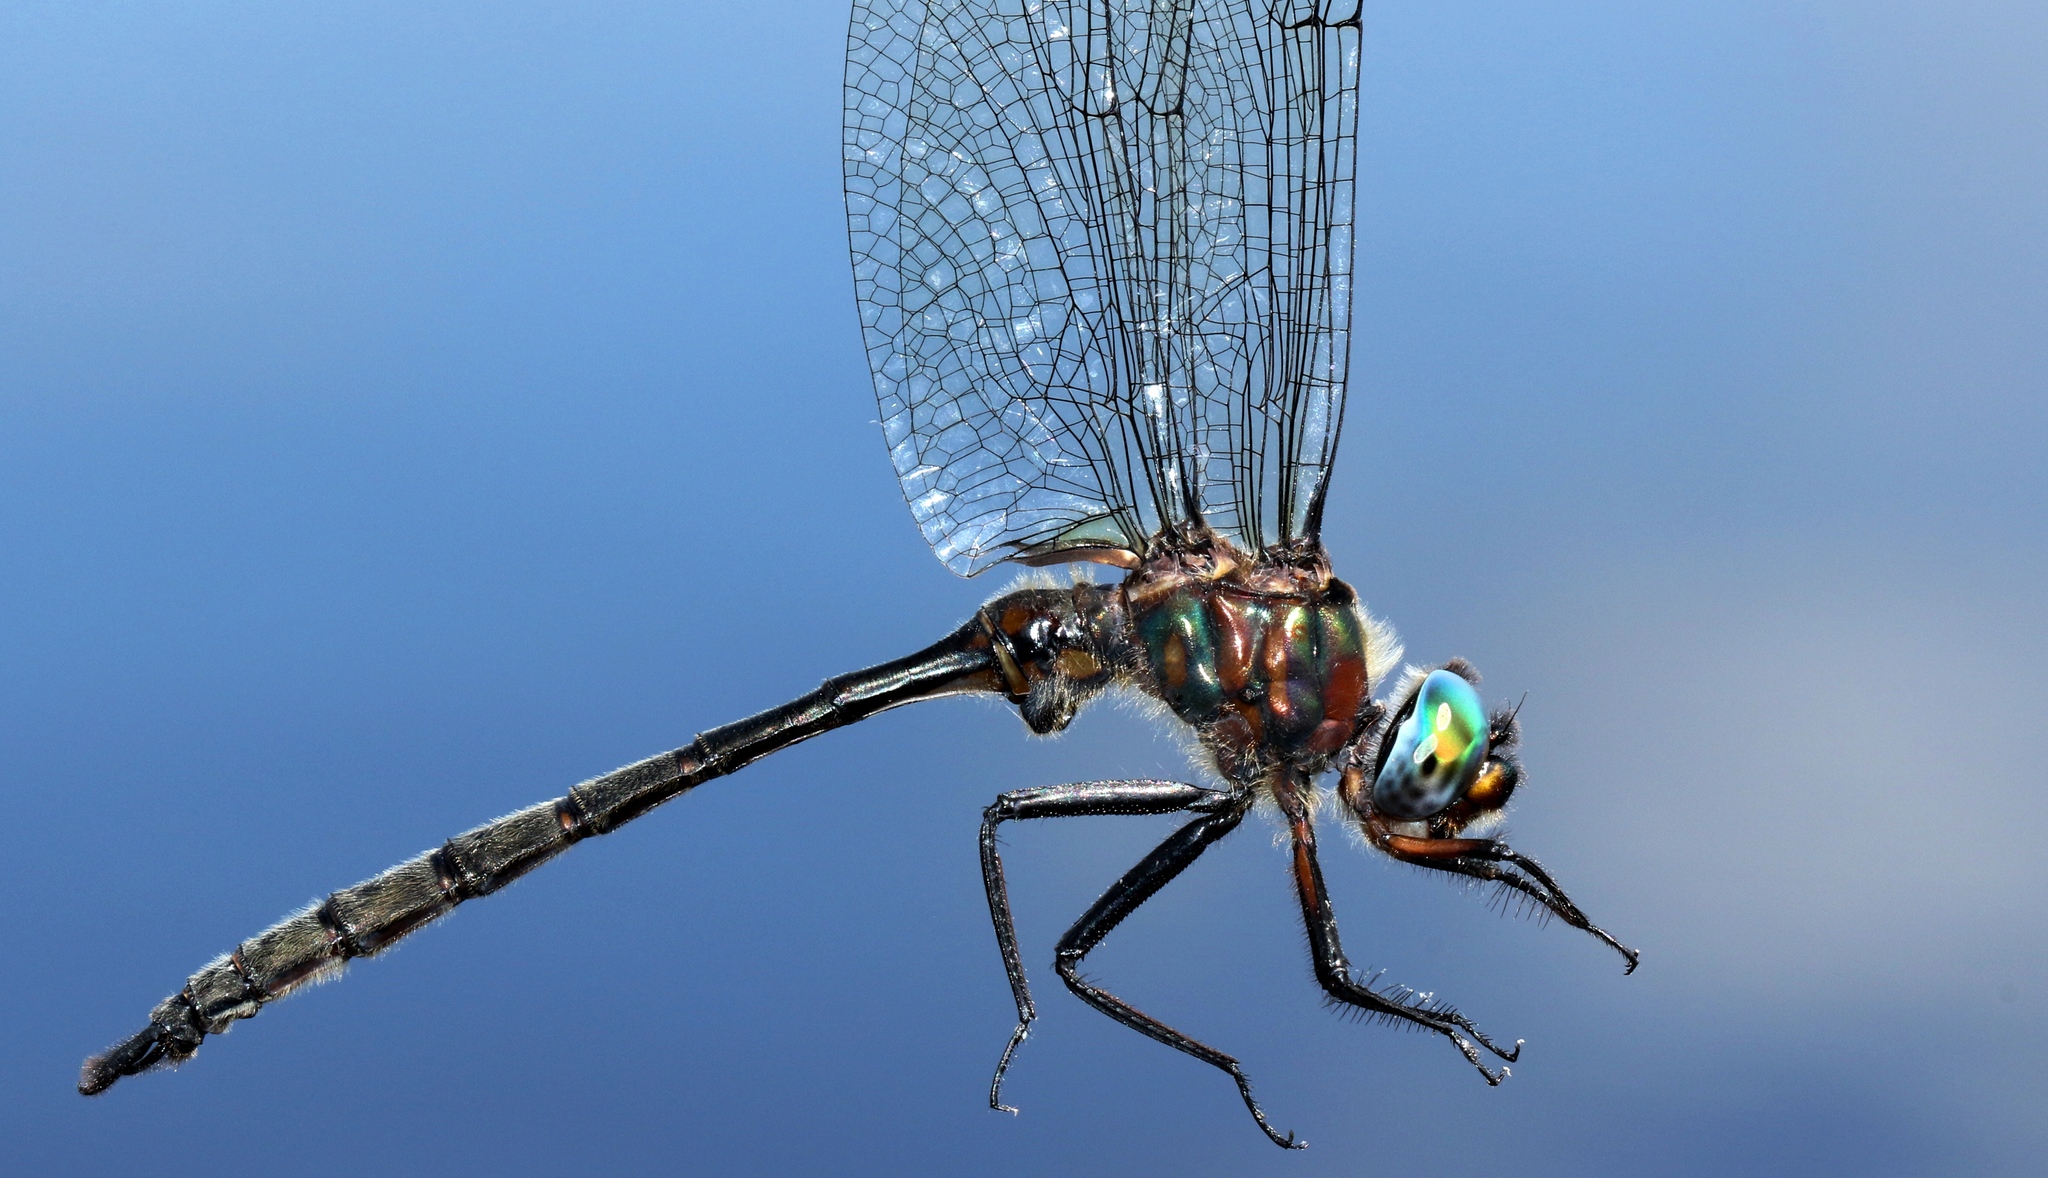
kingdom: Animalia
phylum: Arthropoda
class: Insecta
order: Odonata
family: Corduliidae
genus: Somatochlora
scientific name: Somatochlora williamsoni
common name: Williamson's emerald
